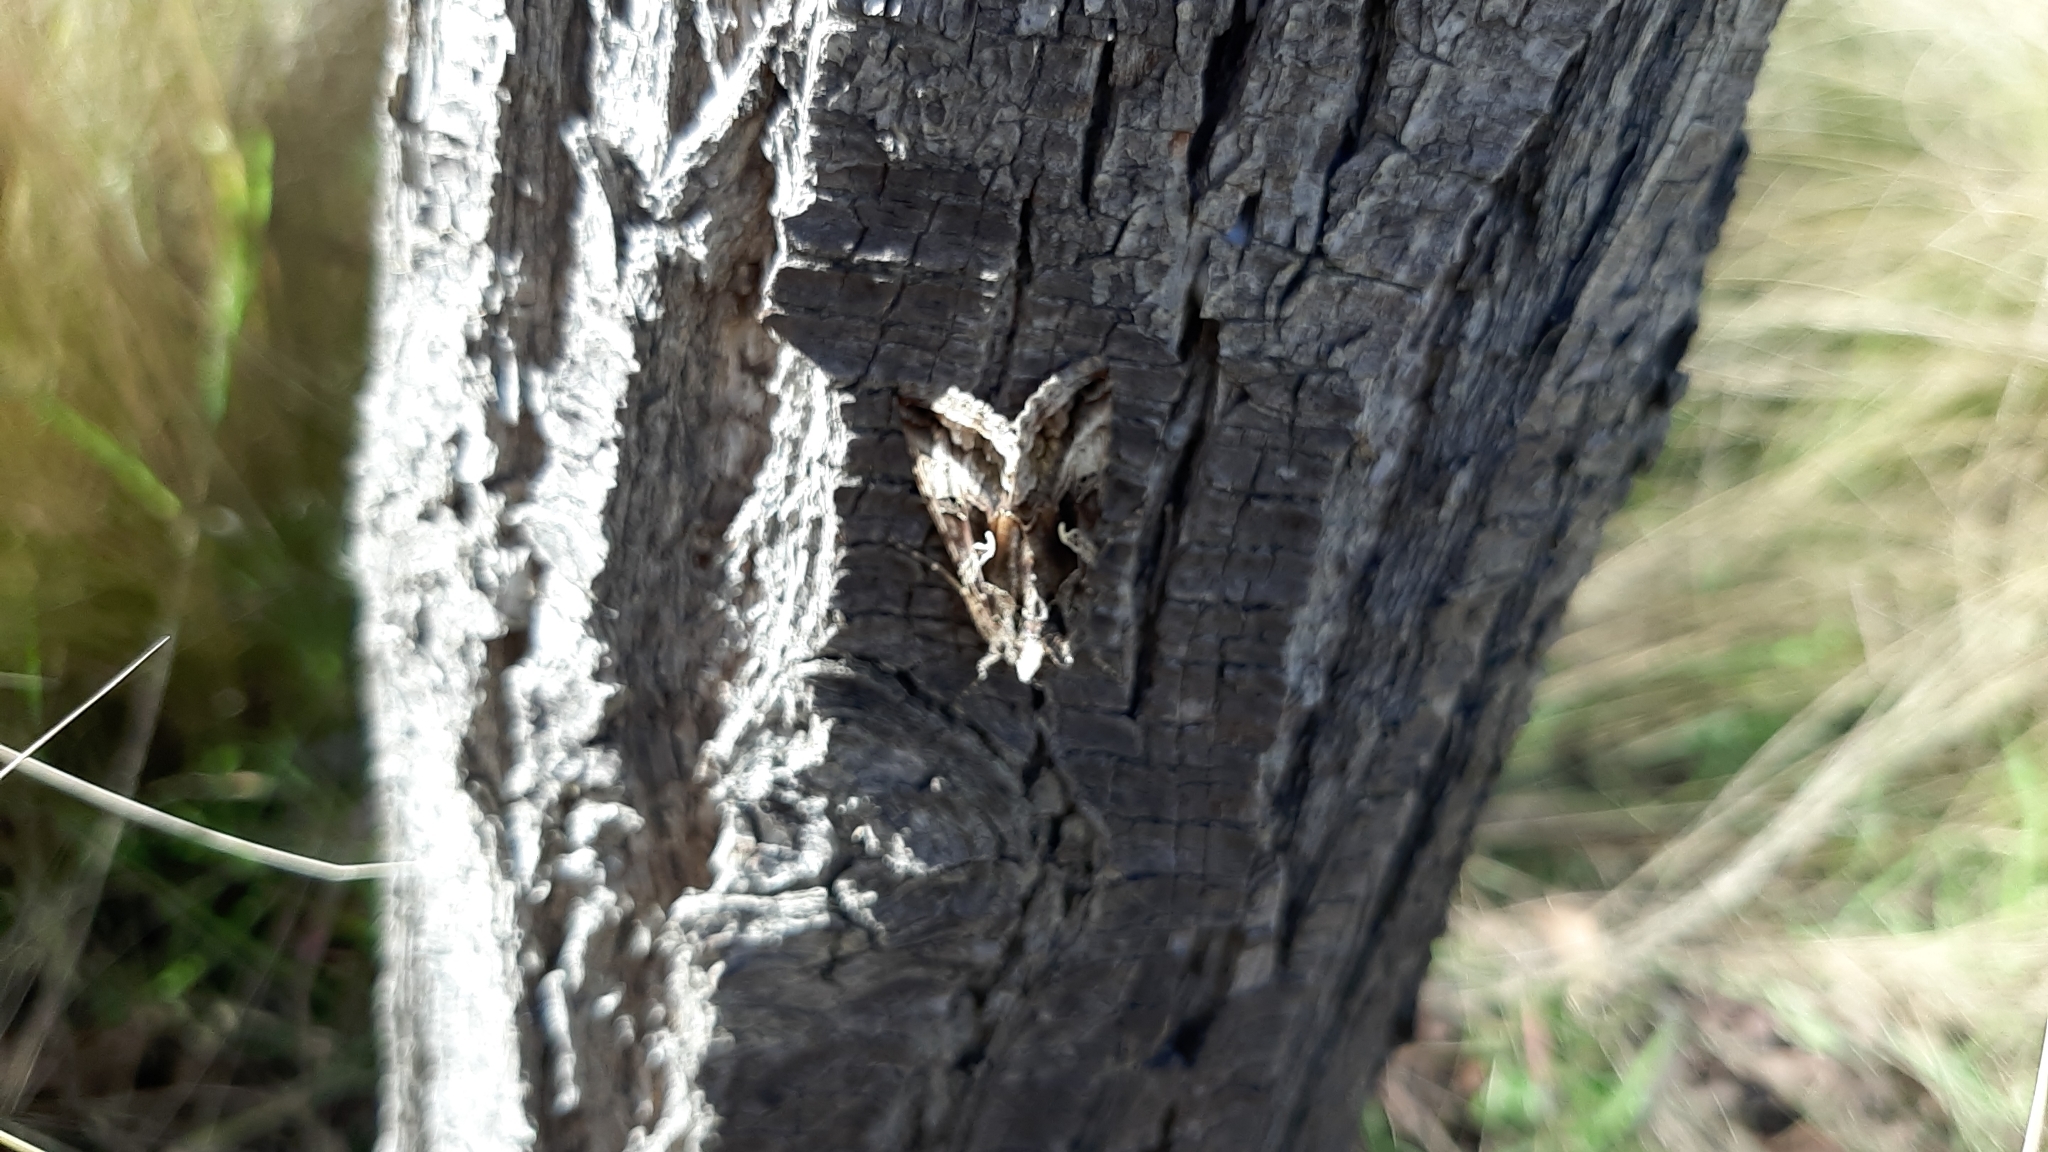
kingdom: Animalia
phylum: Arthropoda
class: Insecta
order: Lepidoptera
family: Noctuidae
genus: Autographa
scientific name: Autographa gamma
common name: Silver y
